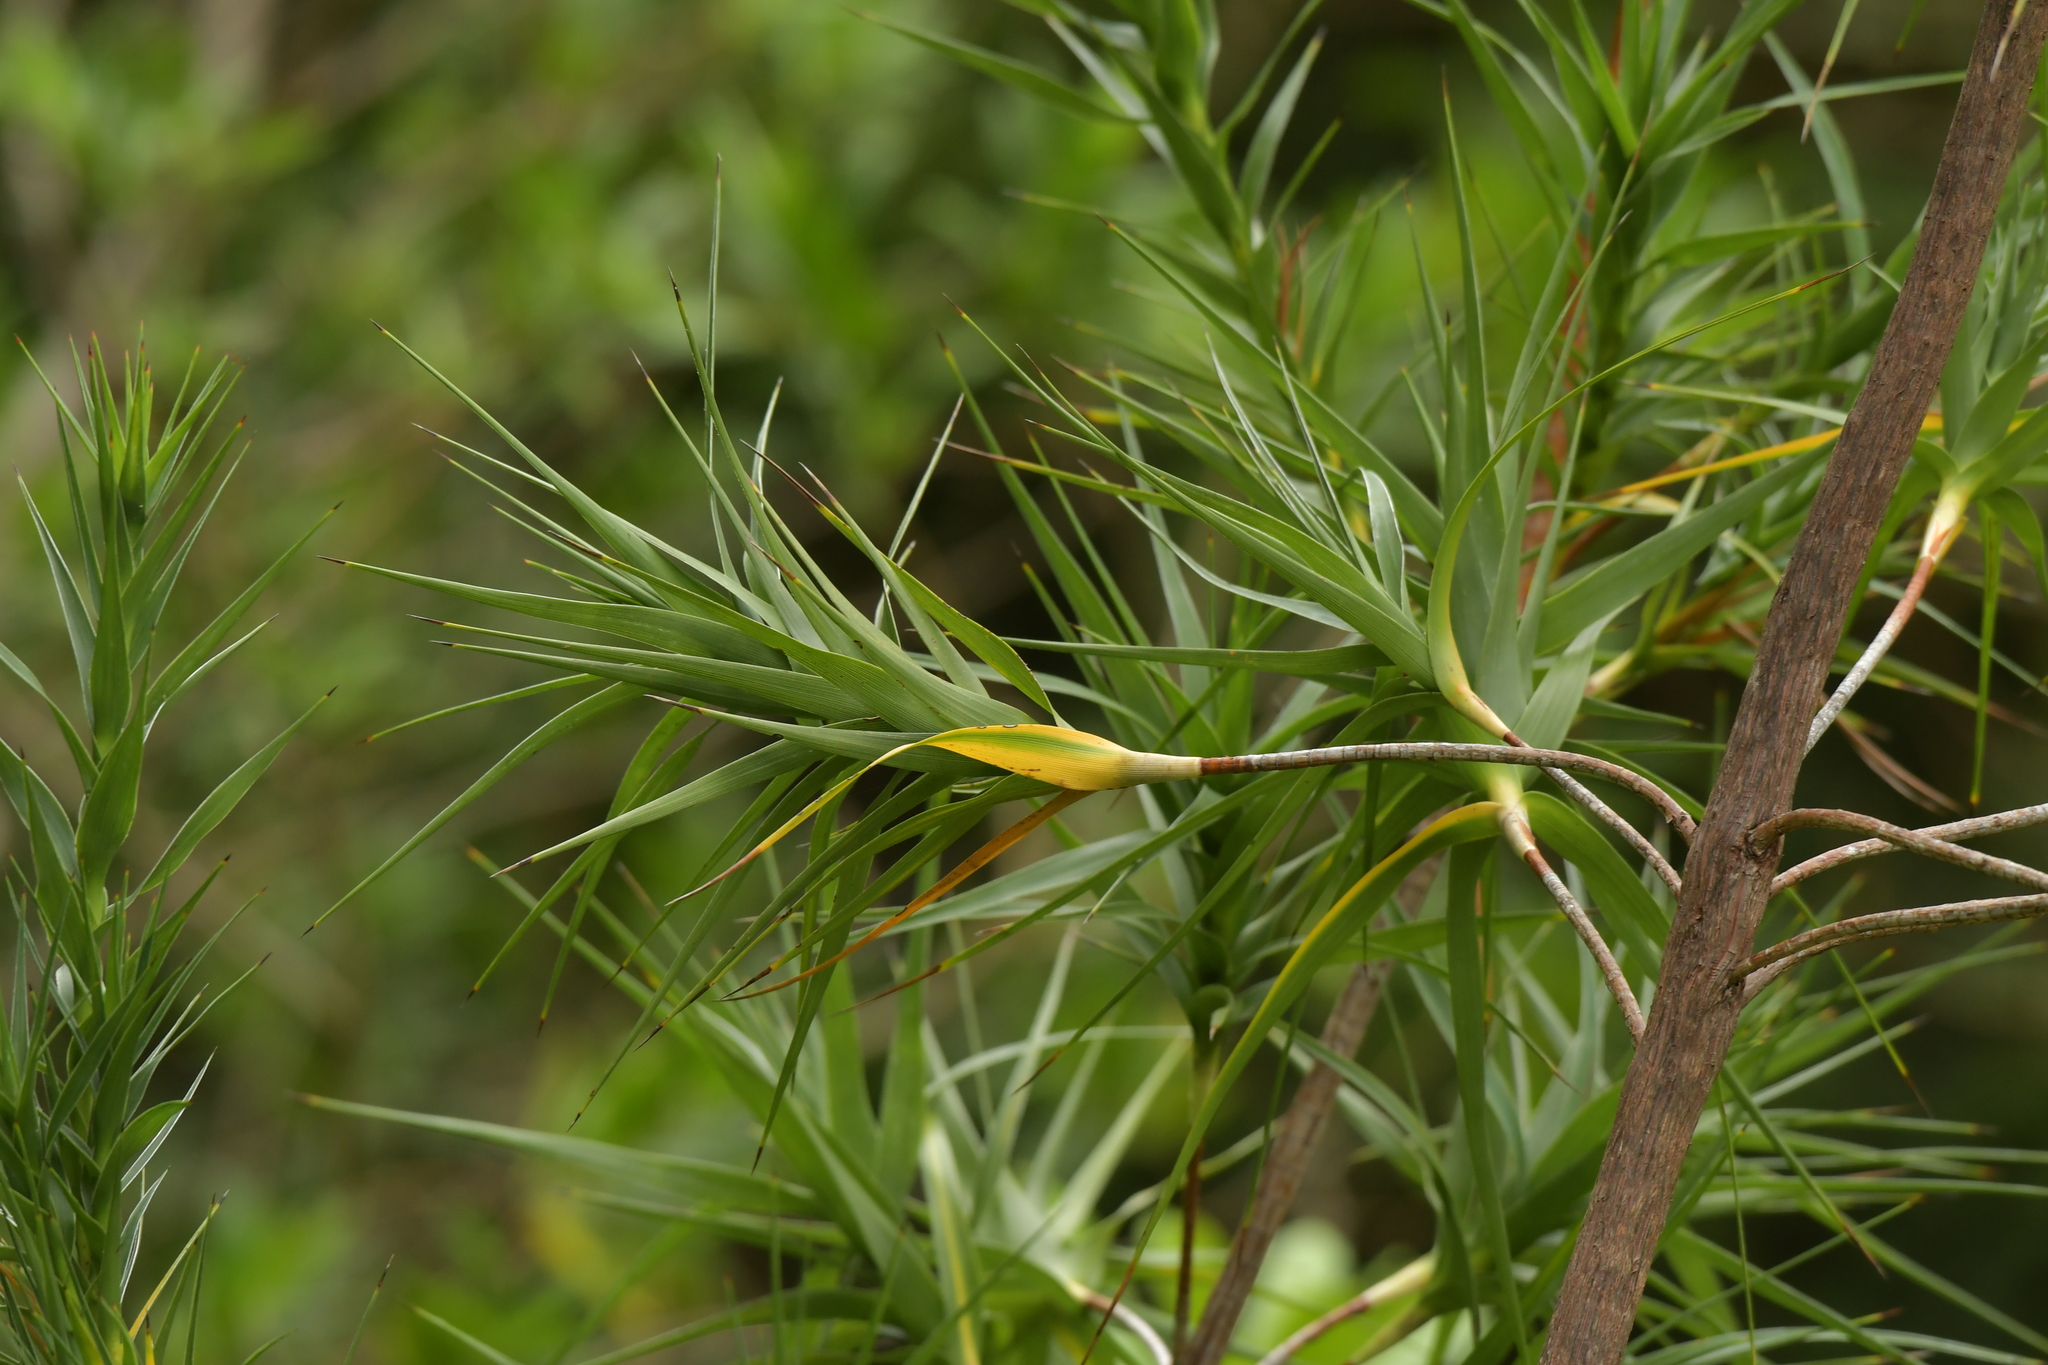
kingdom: Plantae
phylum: Tracheophyta
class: Magnoliopsida
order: Ericales
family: Ericaceae
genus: Dracophyllum
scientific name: Dracophyllum arboreum
